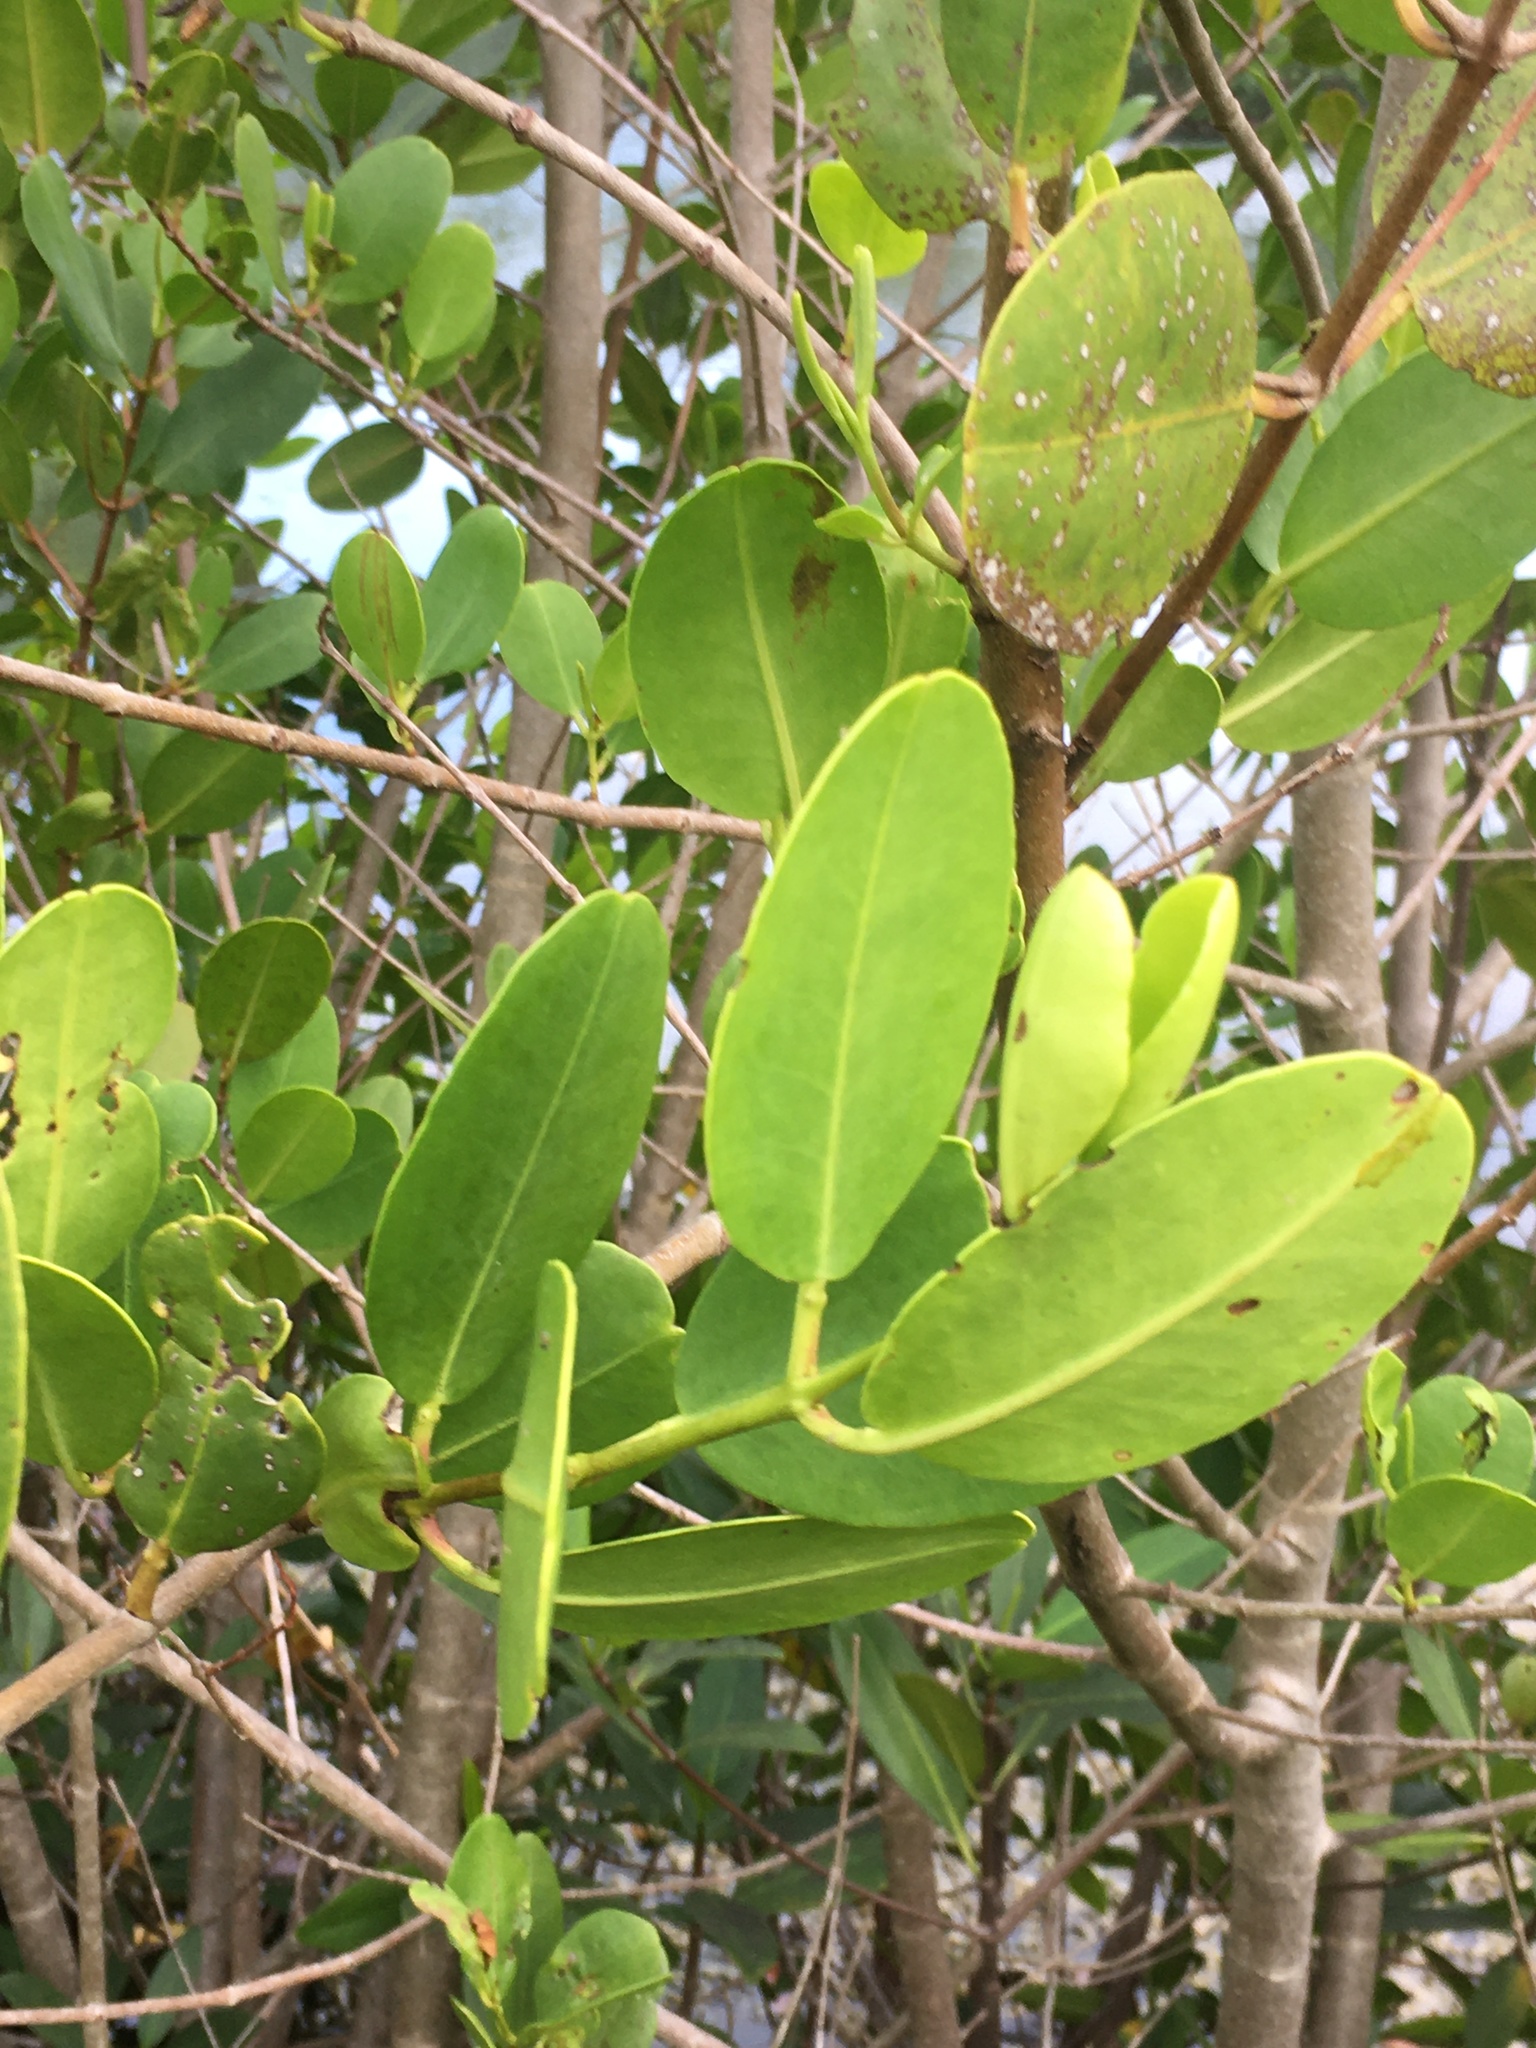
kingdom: Plantae
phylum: Tracheophyta
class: Magnoliopsida
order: Myrtales
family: Combretaceae
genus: Laguncularia
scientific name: Laguncularia racemosa
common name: White mangrove
